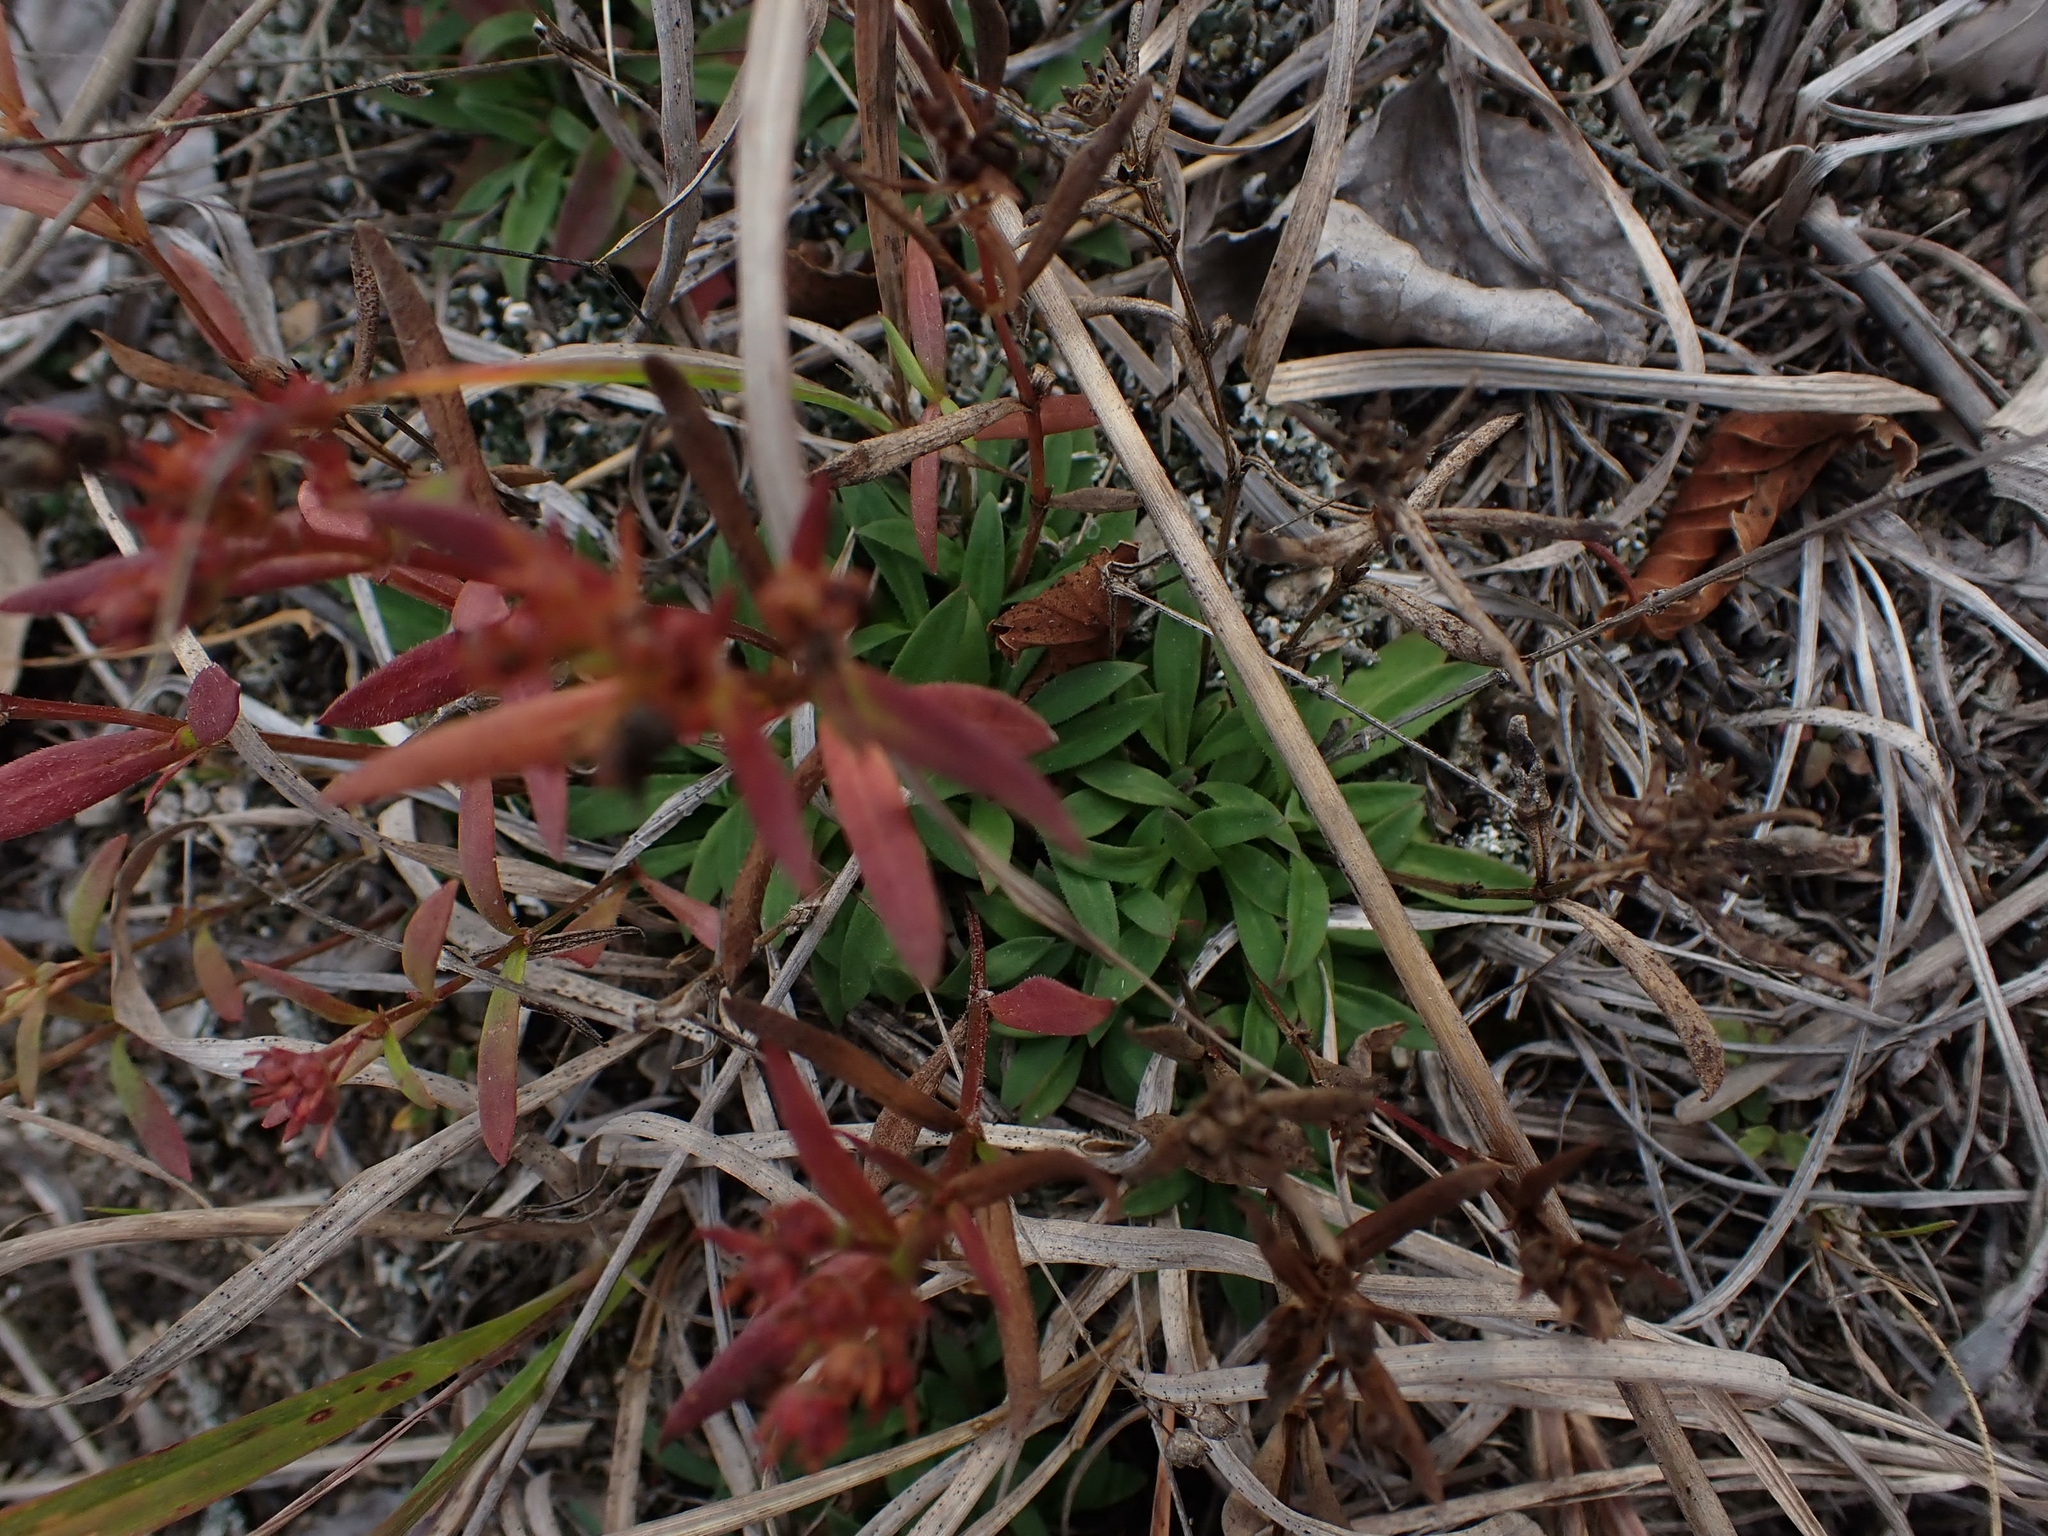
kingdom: Plantae
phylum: Tracheophyta
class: Magnoliopsida
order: Gentianales
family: Rubiaceae
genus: Houstonia
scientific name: Houstonia longifolia
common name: Long-leaved bluets
